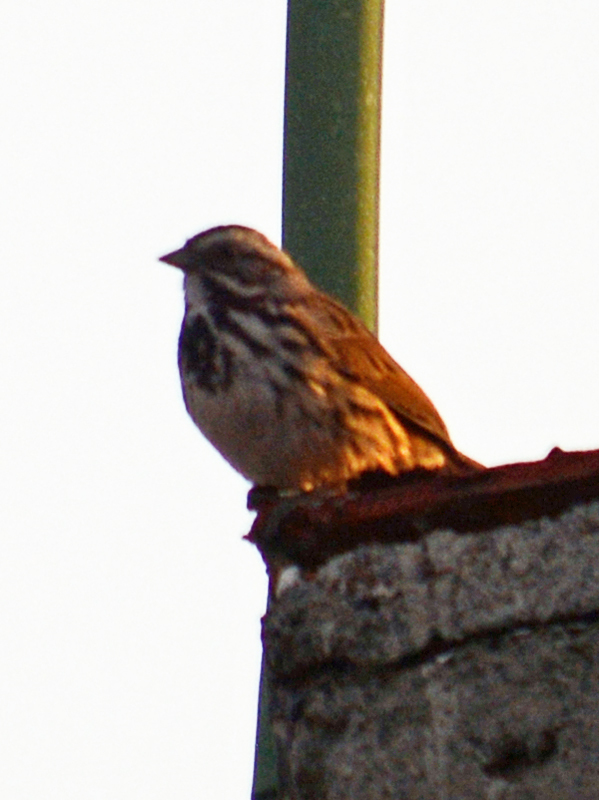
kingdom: Animalia
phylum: Chordata
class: Aves
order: Passeriformes
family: Passerellidae
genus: Melospiza
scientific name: Melospiza melodia
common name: Song sparrow
